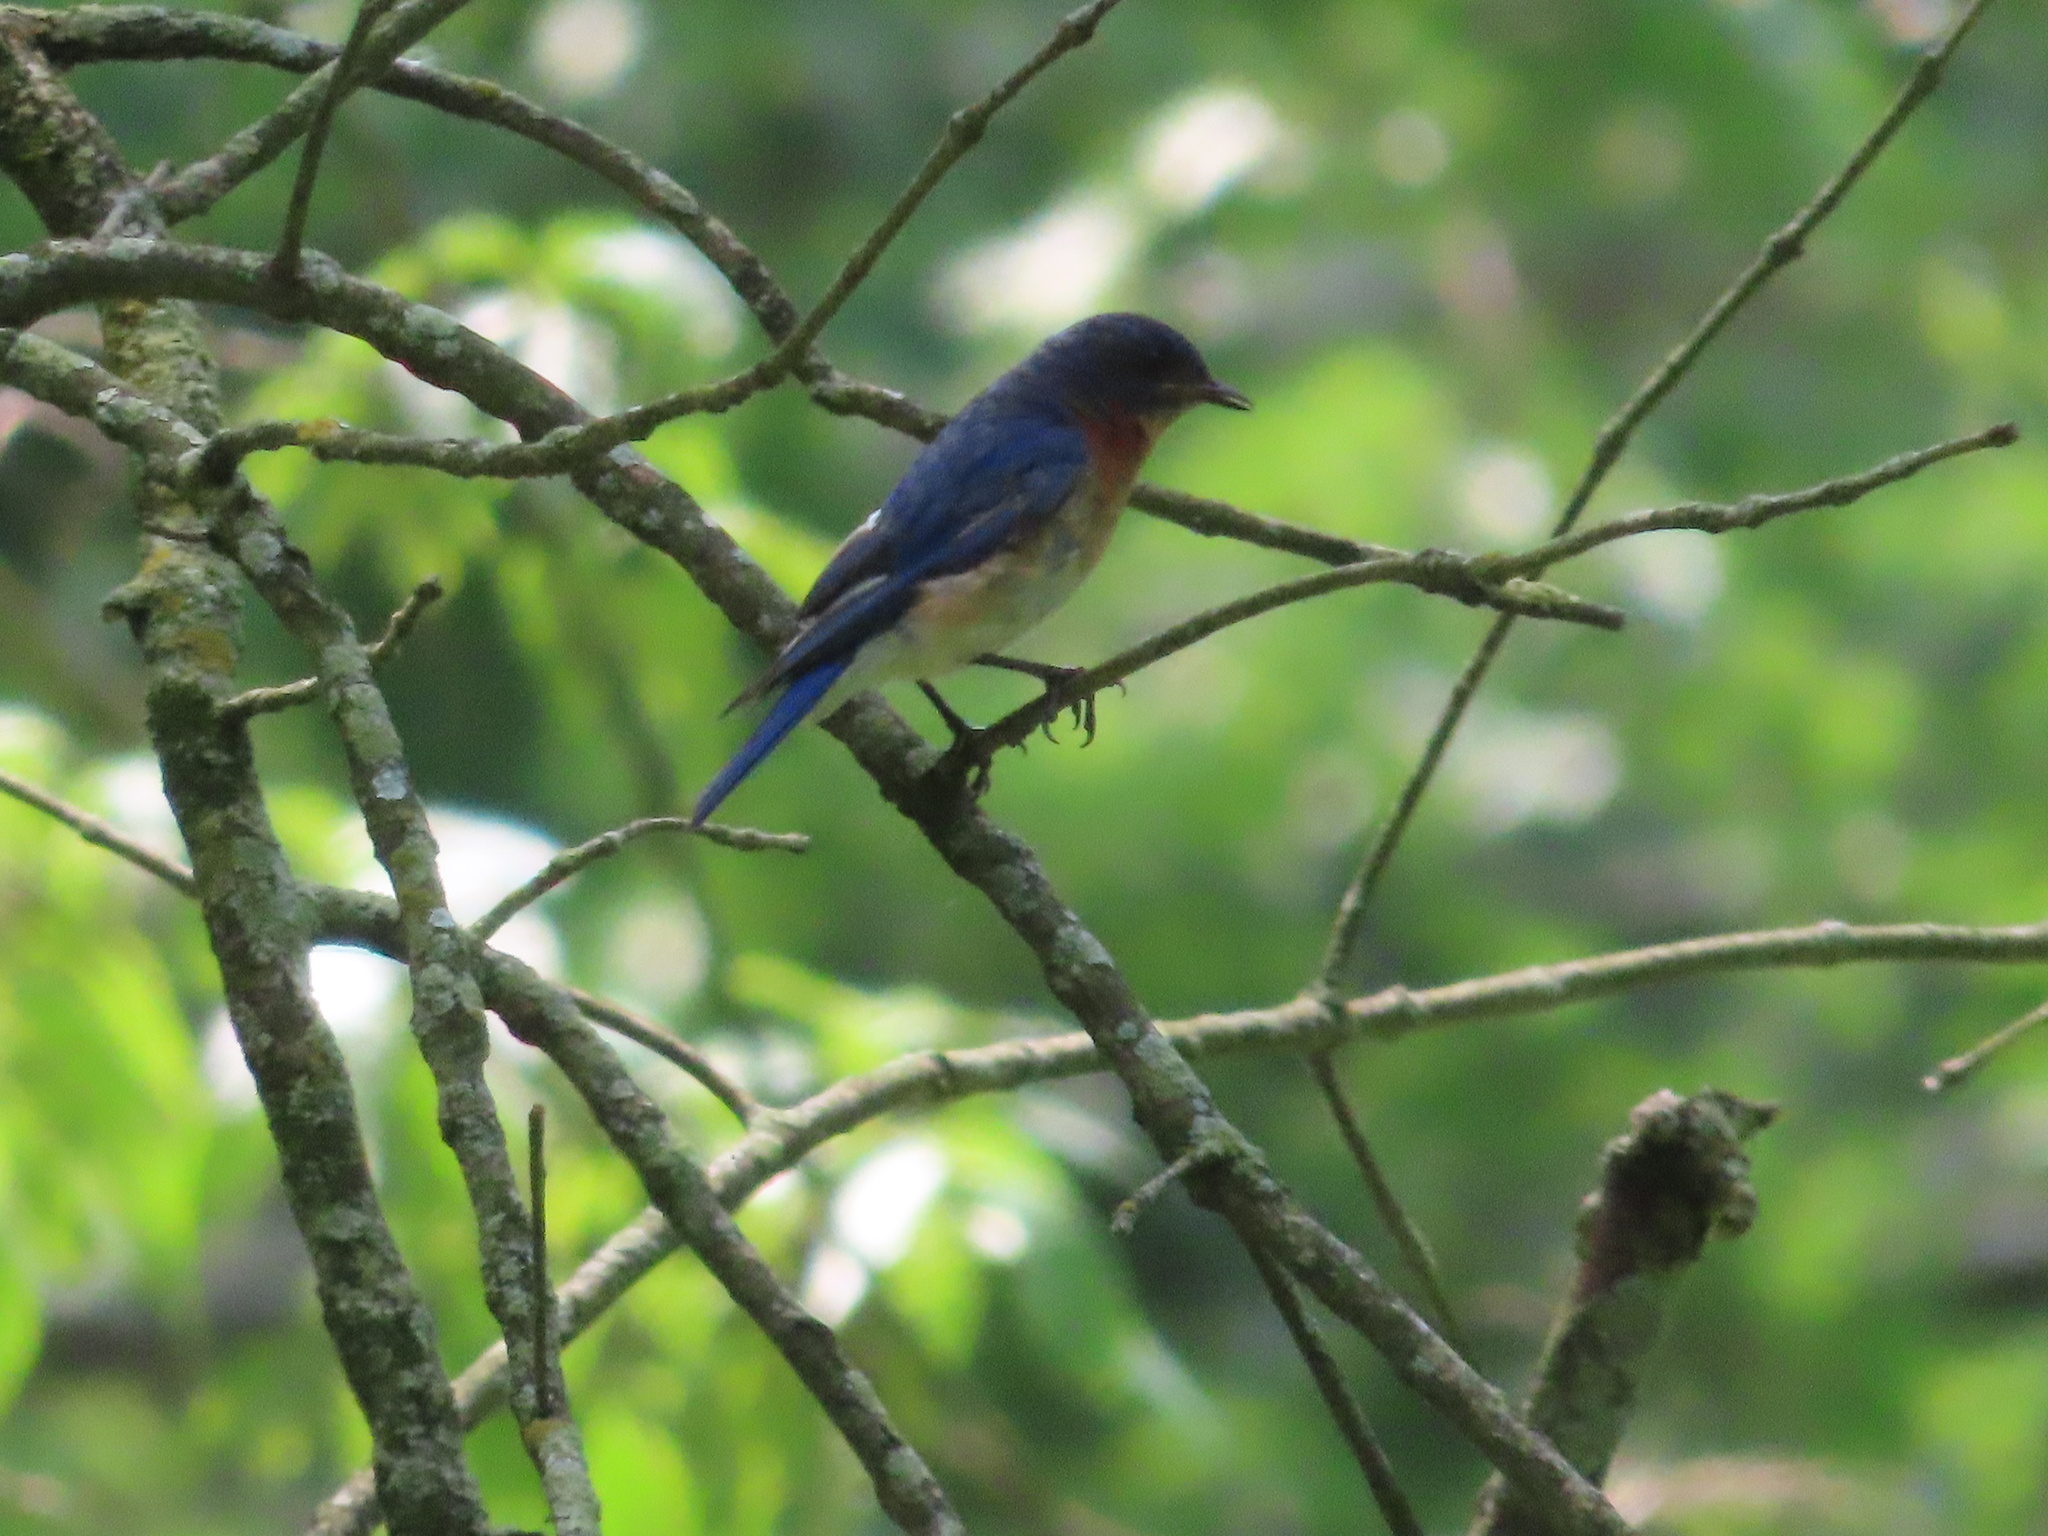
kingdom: Animalia
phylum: Chordata
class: Aves
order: Passeriformes
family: Turdidae
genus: Sialia
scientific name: Sialia sialis
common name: Eastern bluebird
